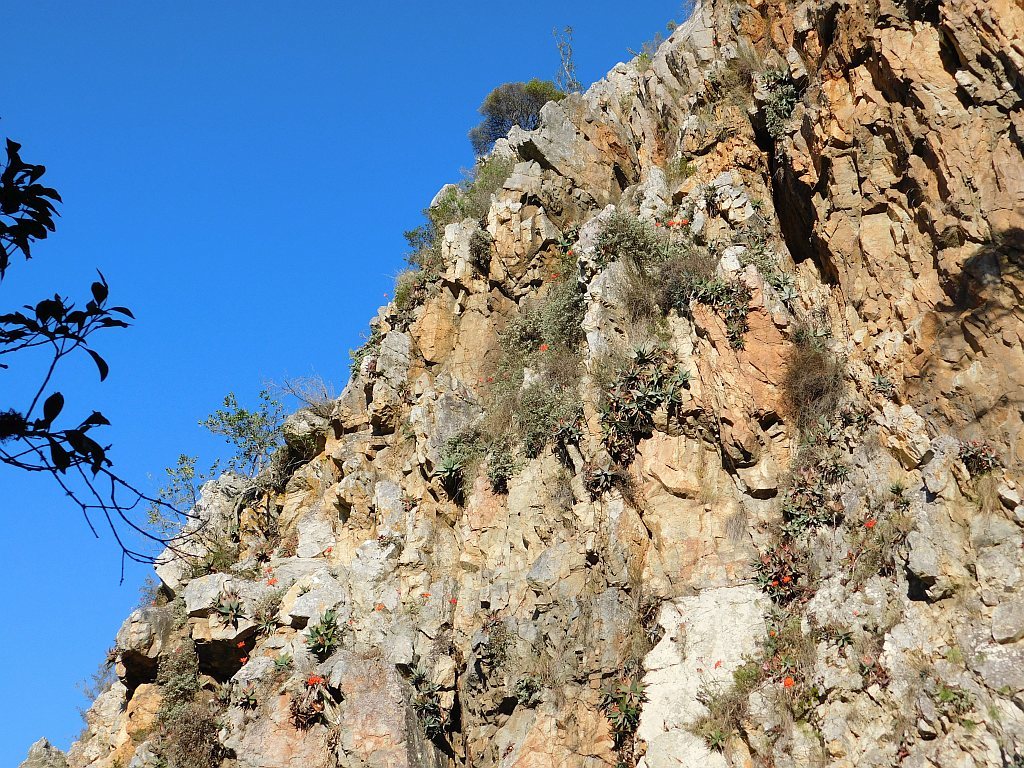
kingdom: Plantae
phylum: Tracheophyta
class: Liliopsida
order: Asparagales
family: Amaryllidaceae
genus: Nerine
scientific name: Nerine sarniensis
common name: Guernsey-lily
